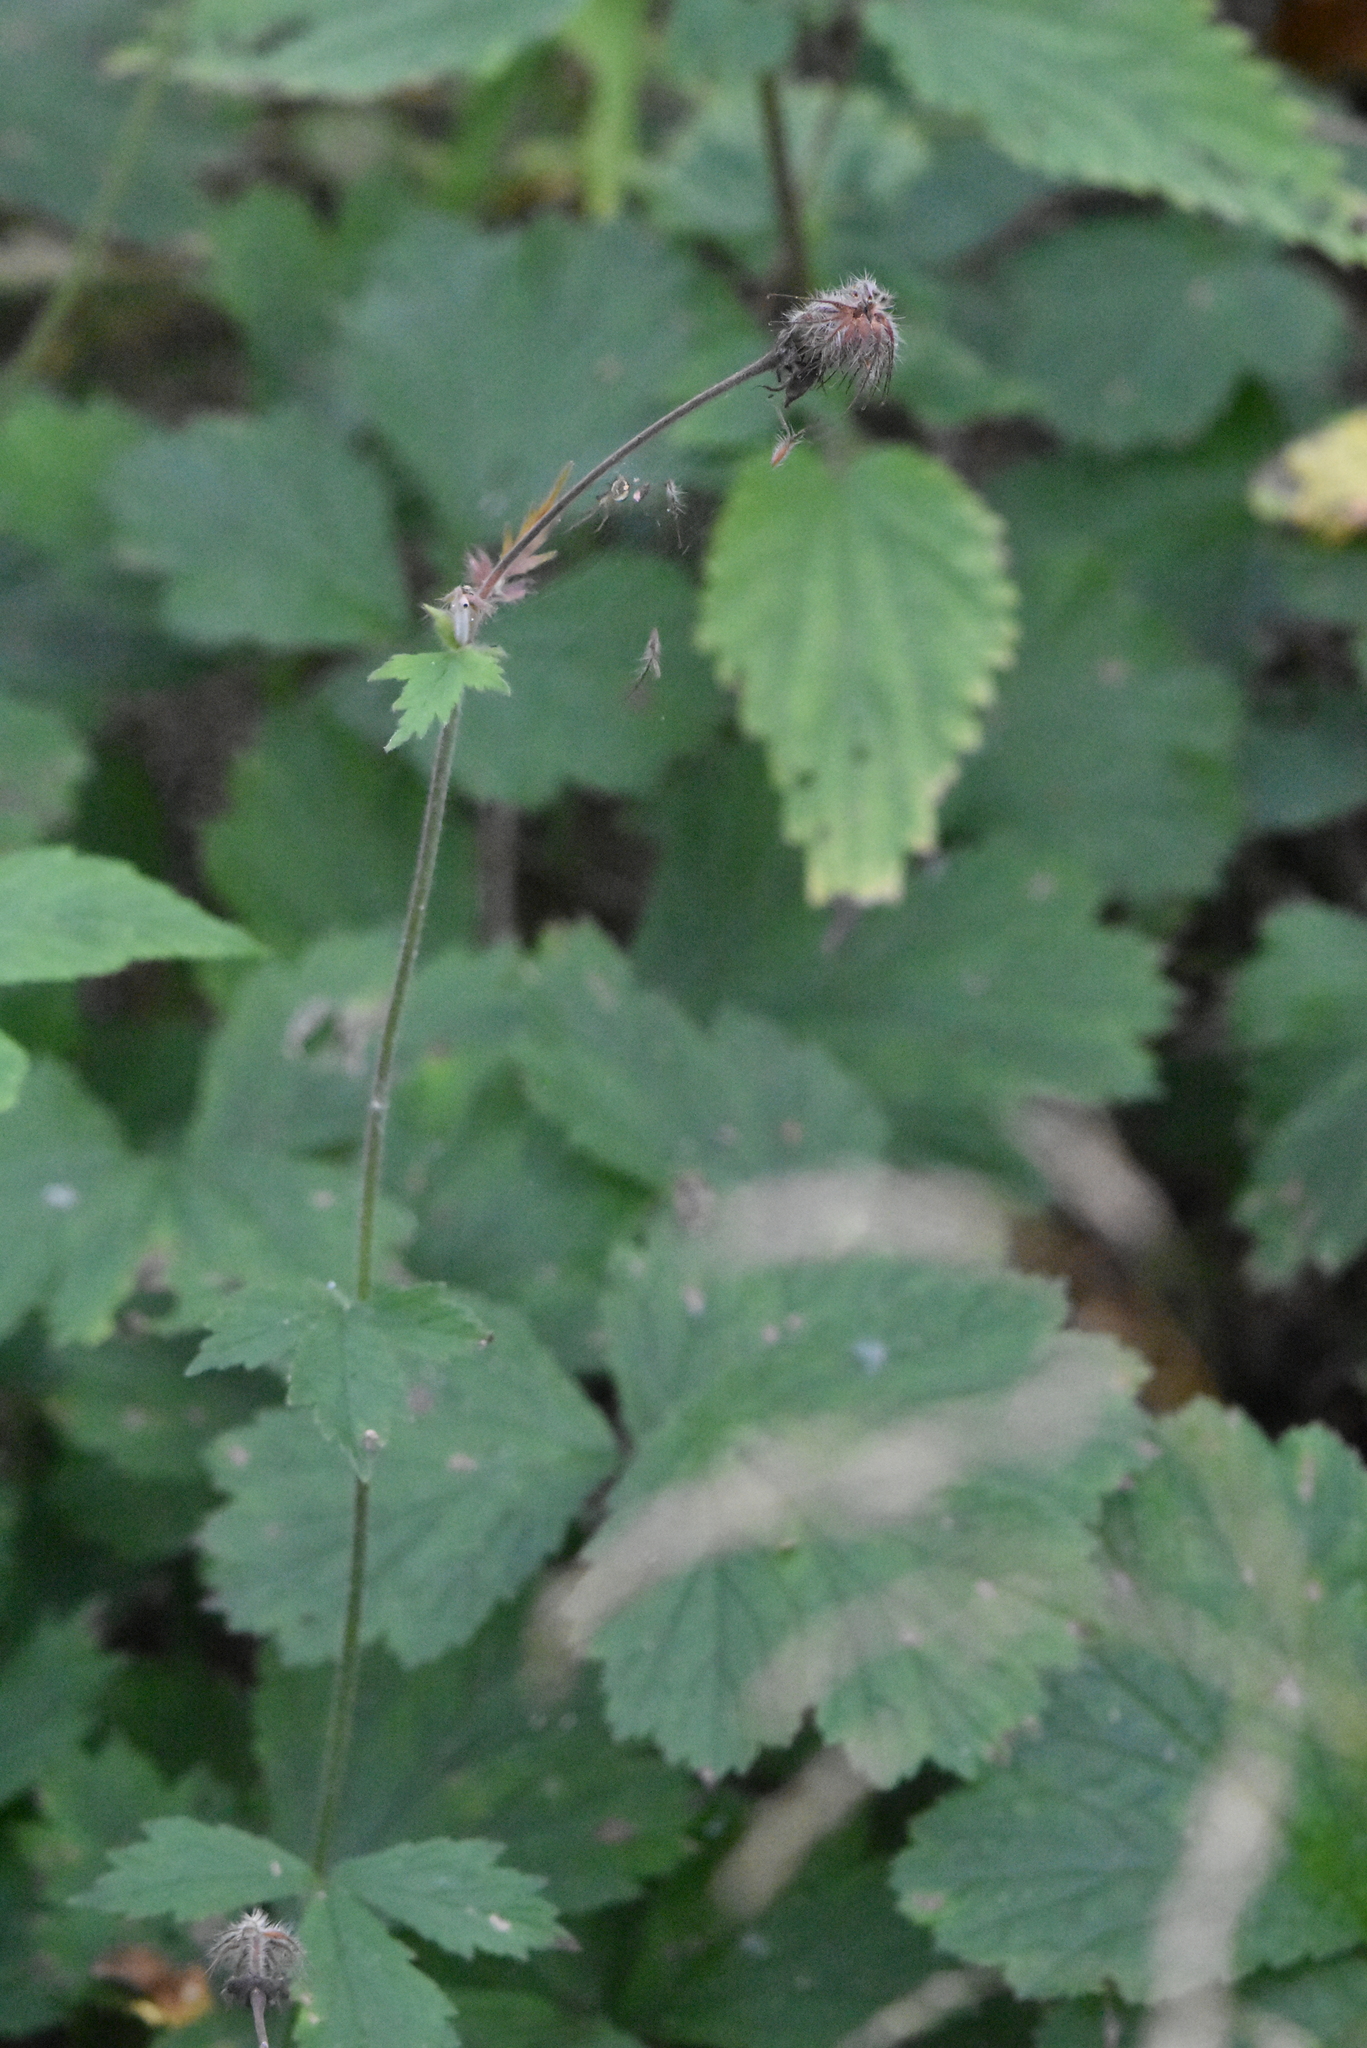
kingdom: Plantae
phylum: Tracheophyta
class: Magnoliopsida
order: Rosales
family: Rosaceae
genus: Geum
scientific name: Geum rivale
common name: Water avens
